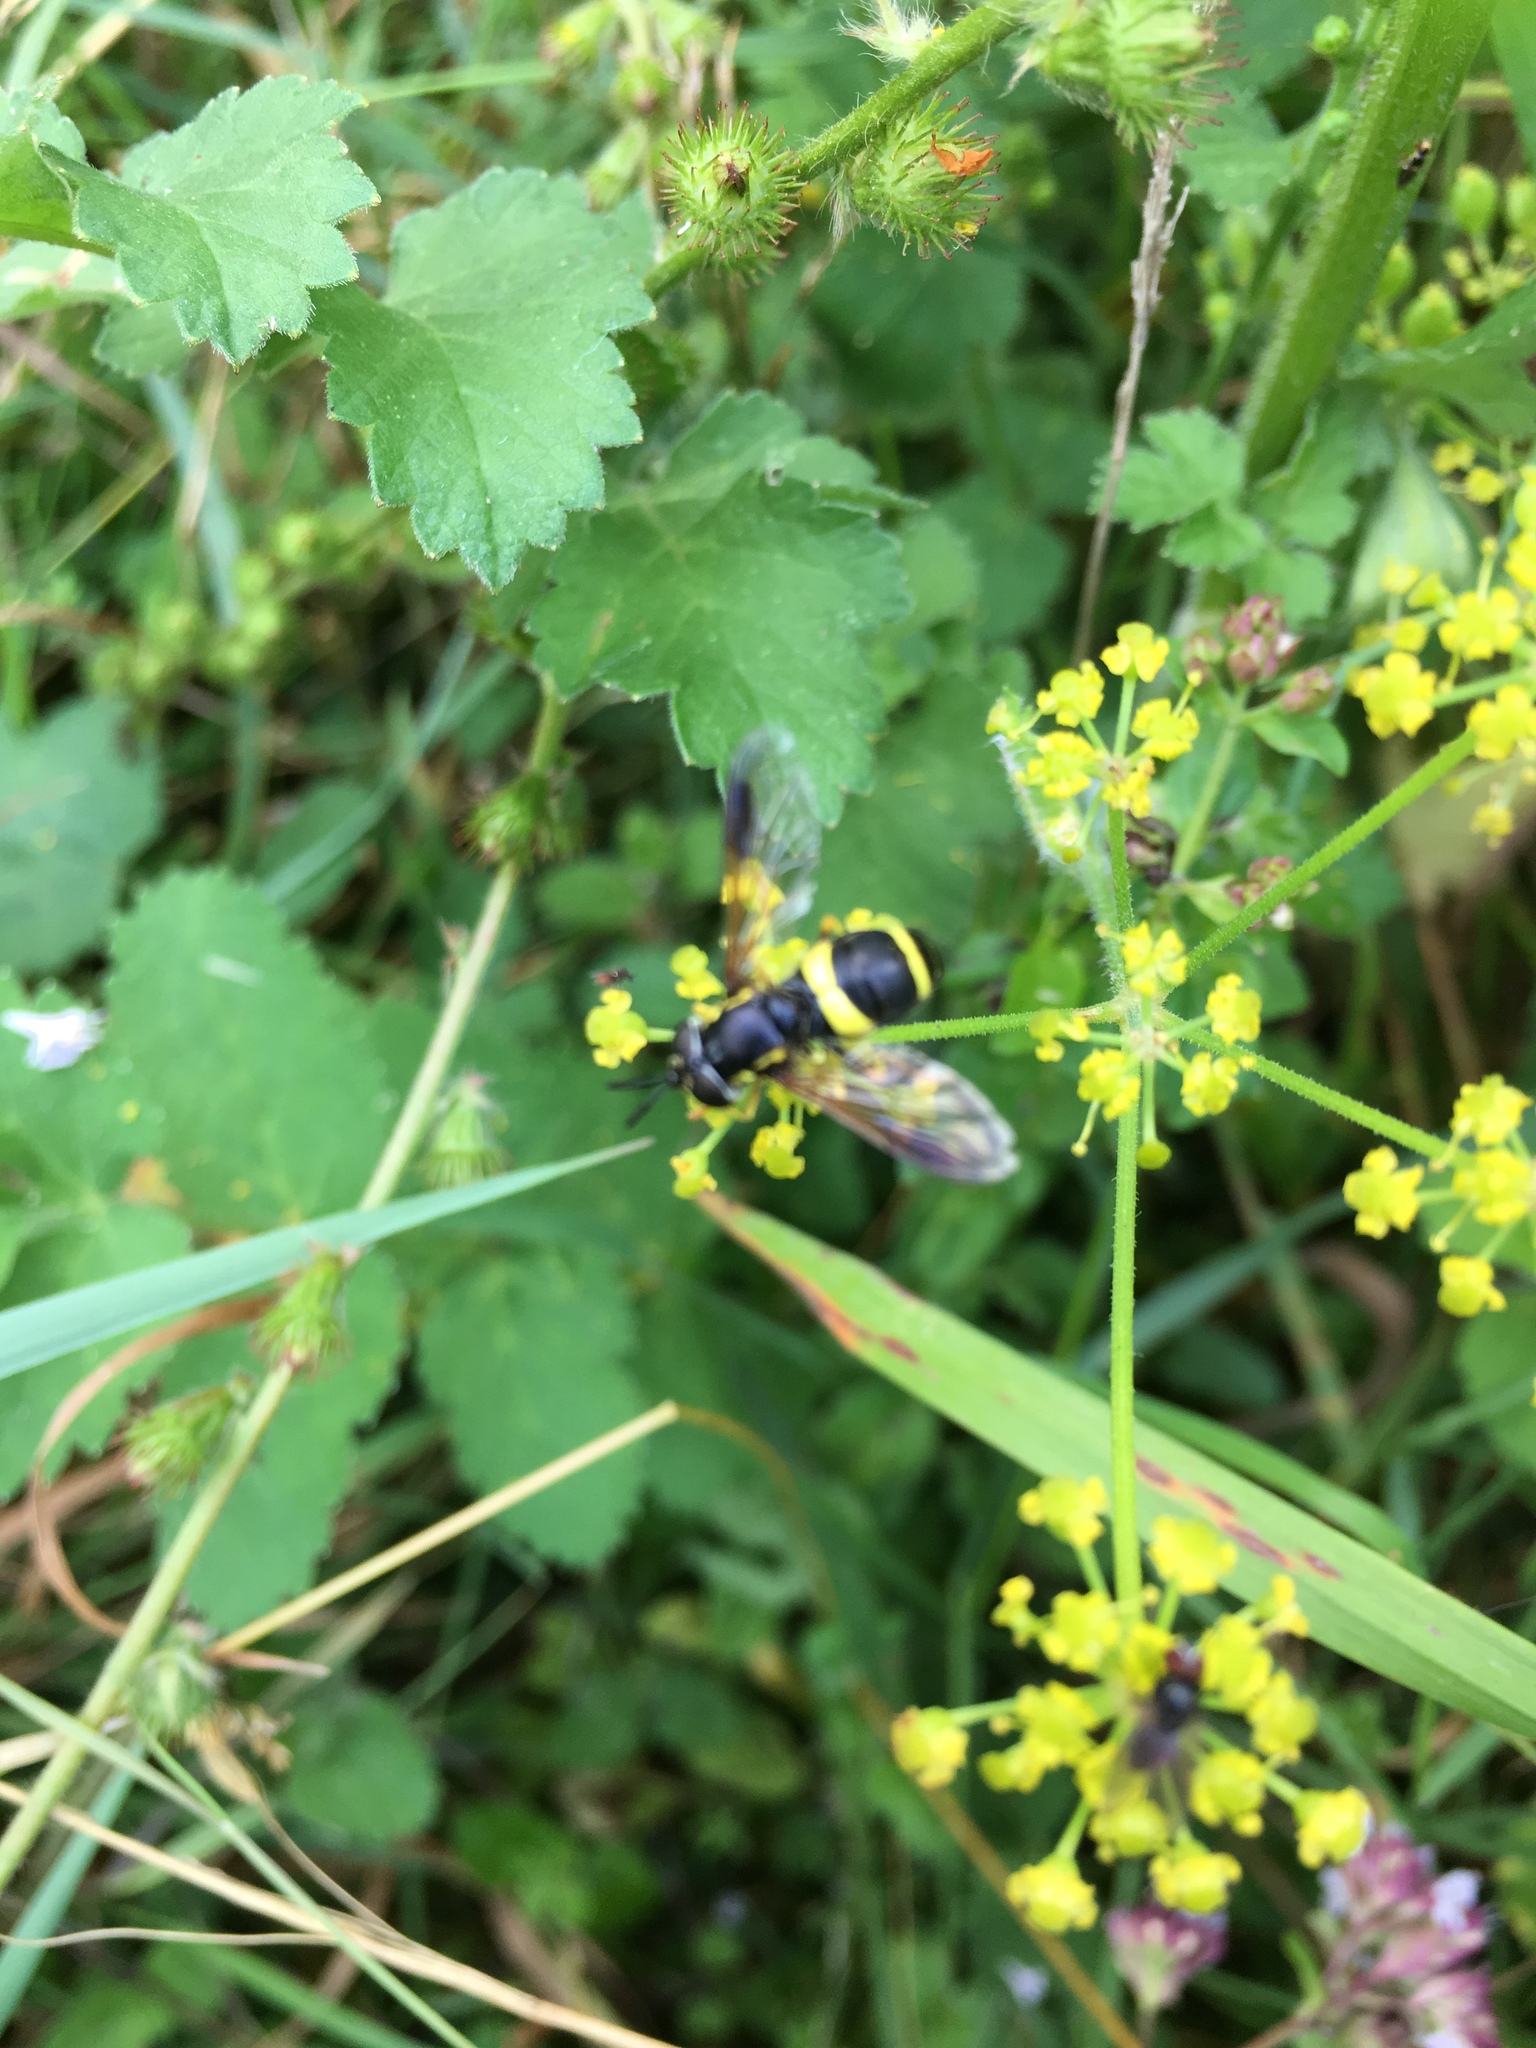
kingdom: Animalia
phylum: Arthropoda
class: Insecta
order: Diptera
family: Syrphidae
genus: Chrysotoxum
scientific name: Chrysotoxum bicincta
